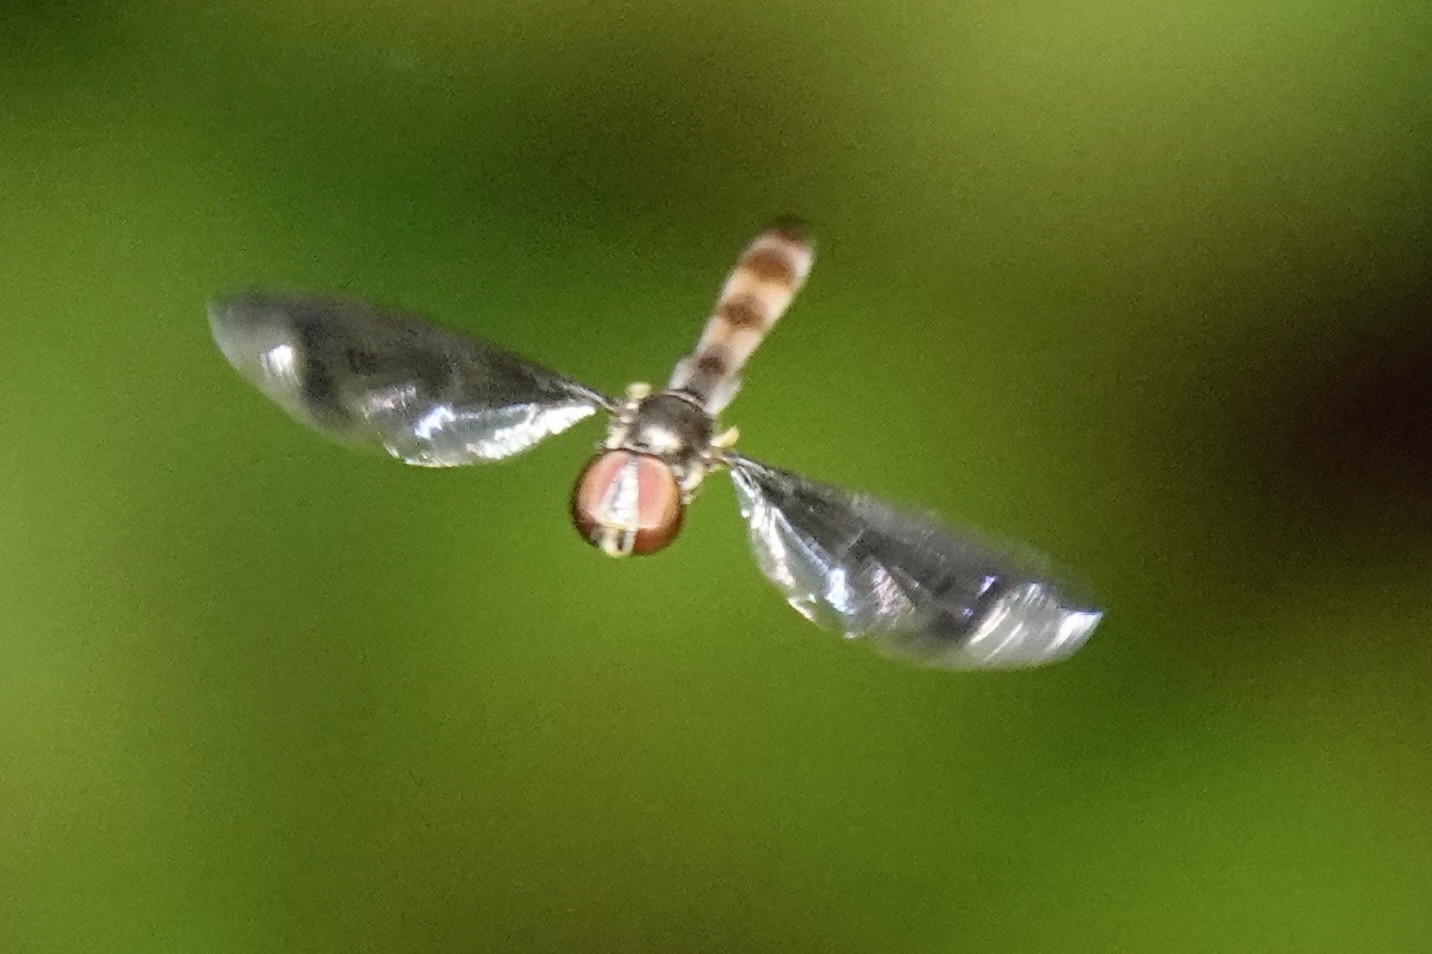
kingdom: Animalia
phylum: Arthropoda
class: Insecta
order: Diptera
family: Syrphidae
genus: Ocyptamus
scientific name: Ocyptamus fuscipennis
